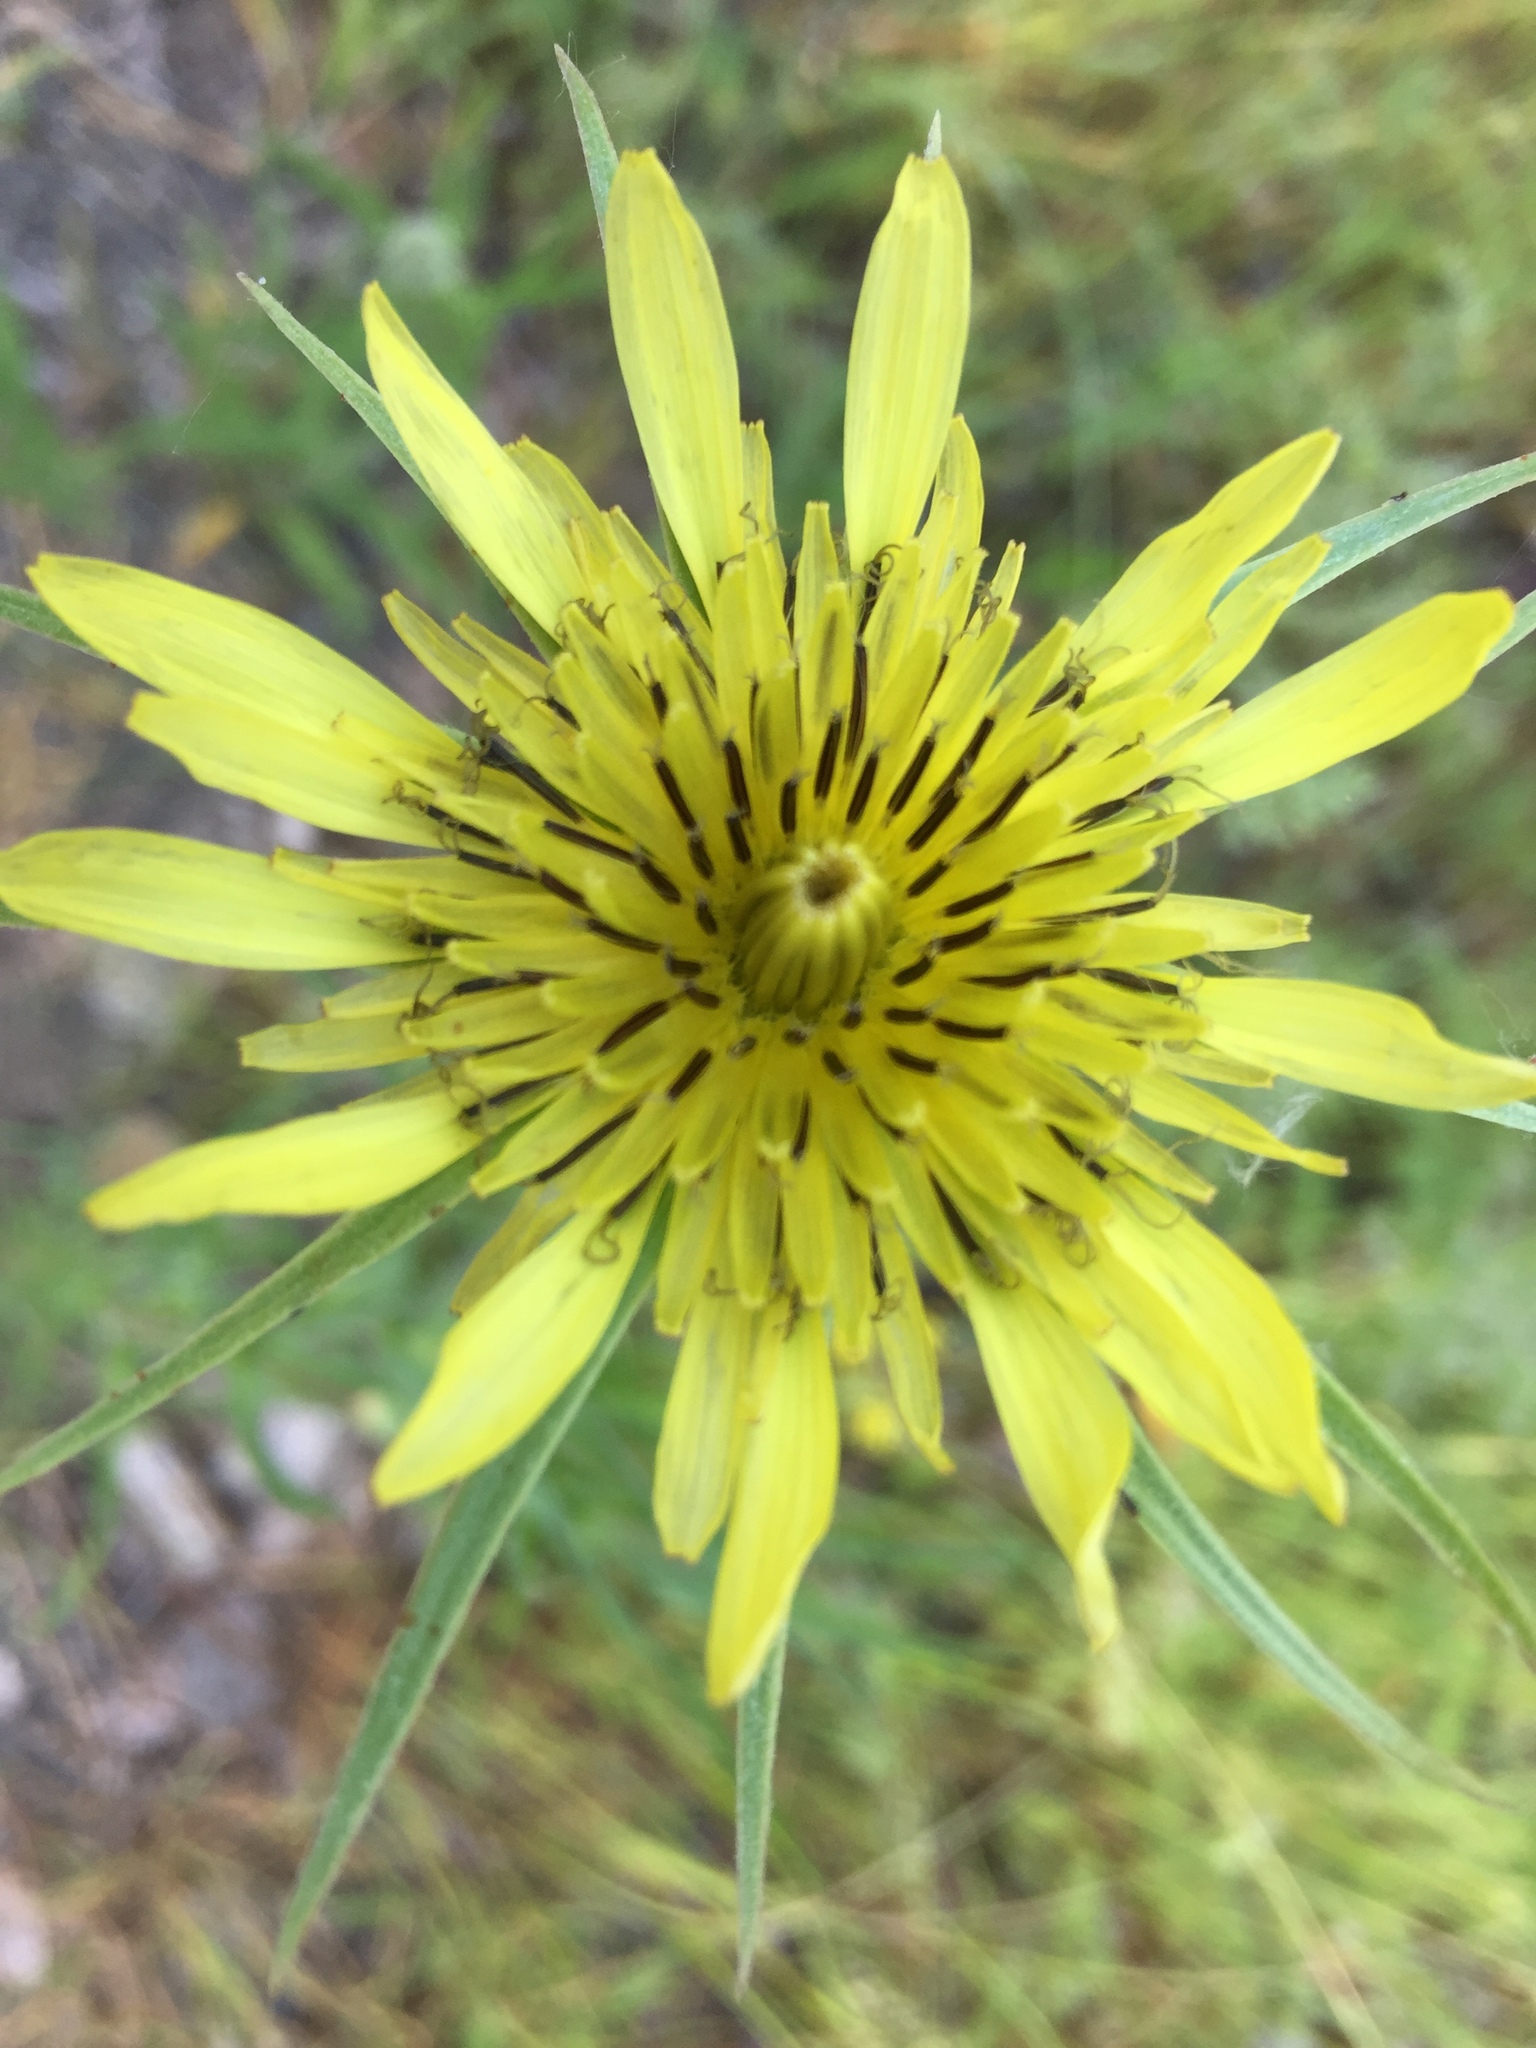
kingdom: Plantae
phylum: Tracheophyta
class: Magnoliopsida
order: Asterales
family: Asteraceae
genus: Tragopogon
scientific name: Tragopogon dubius
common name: Yellow salsify
